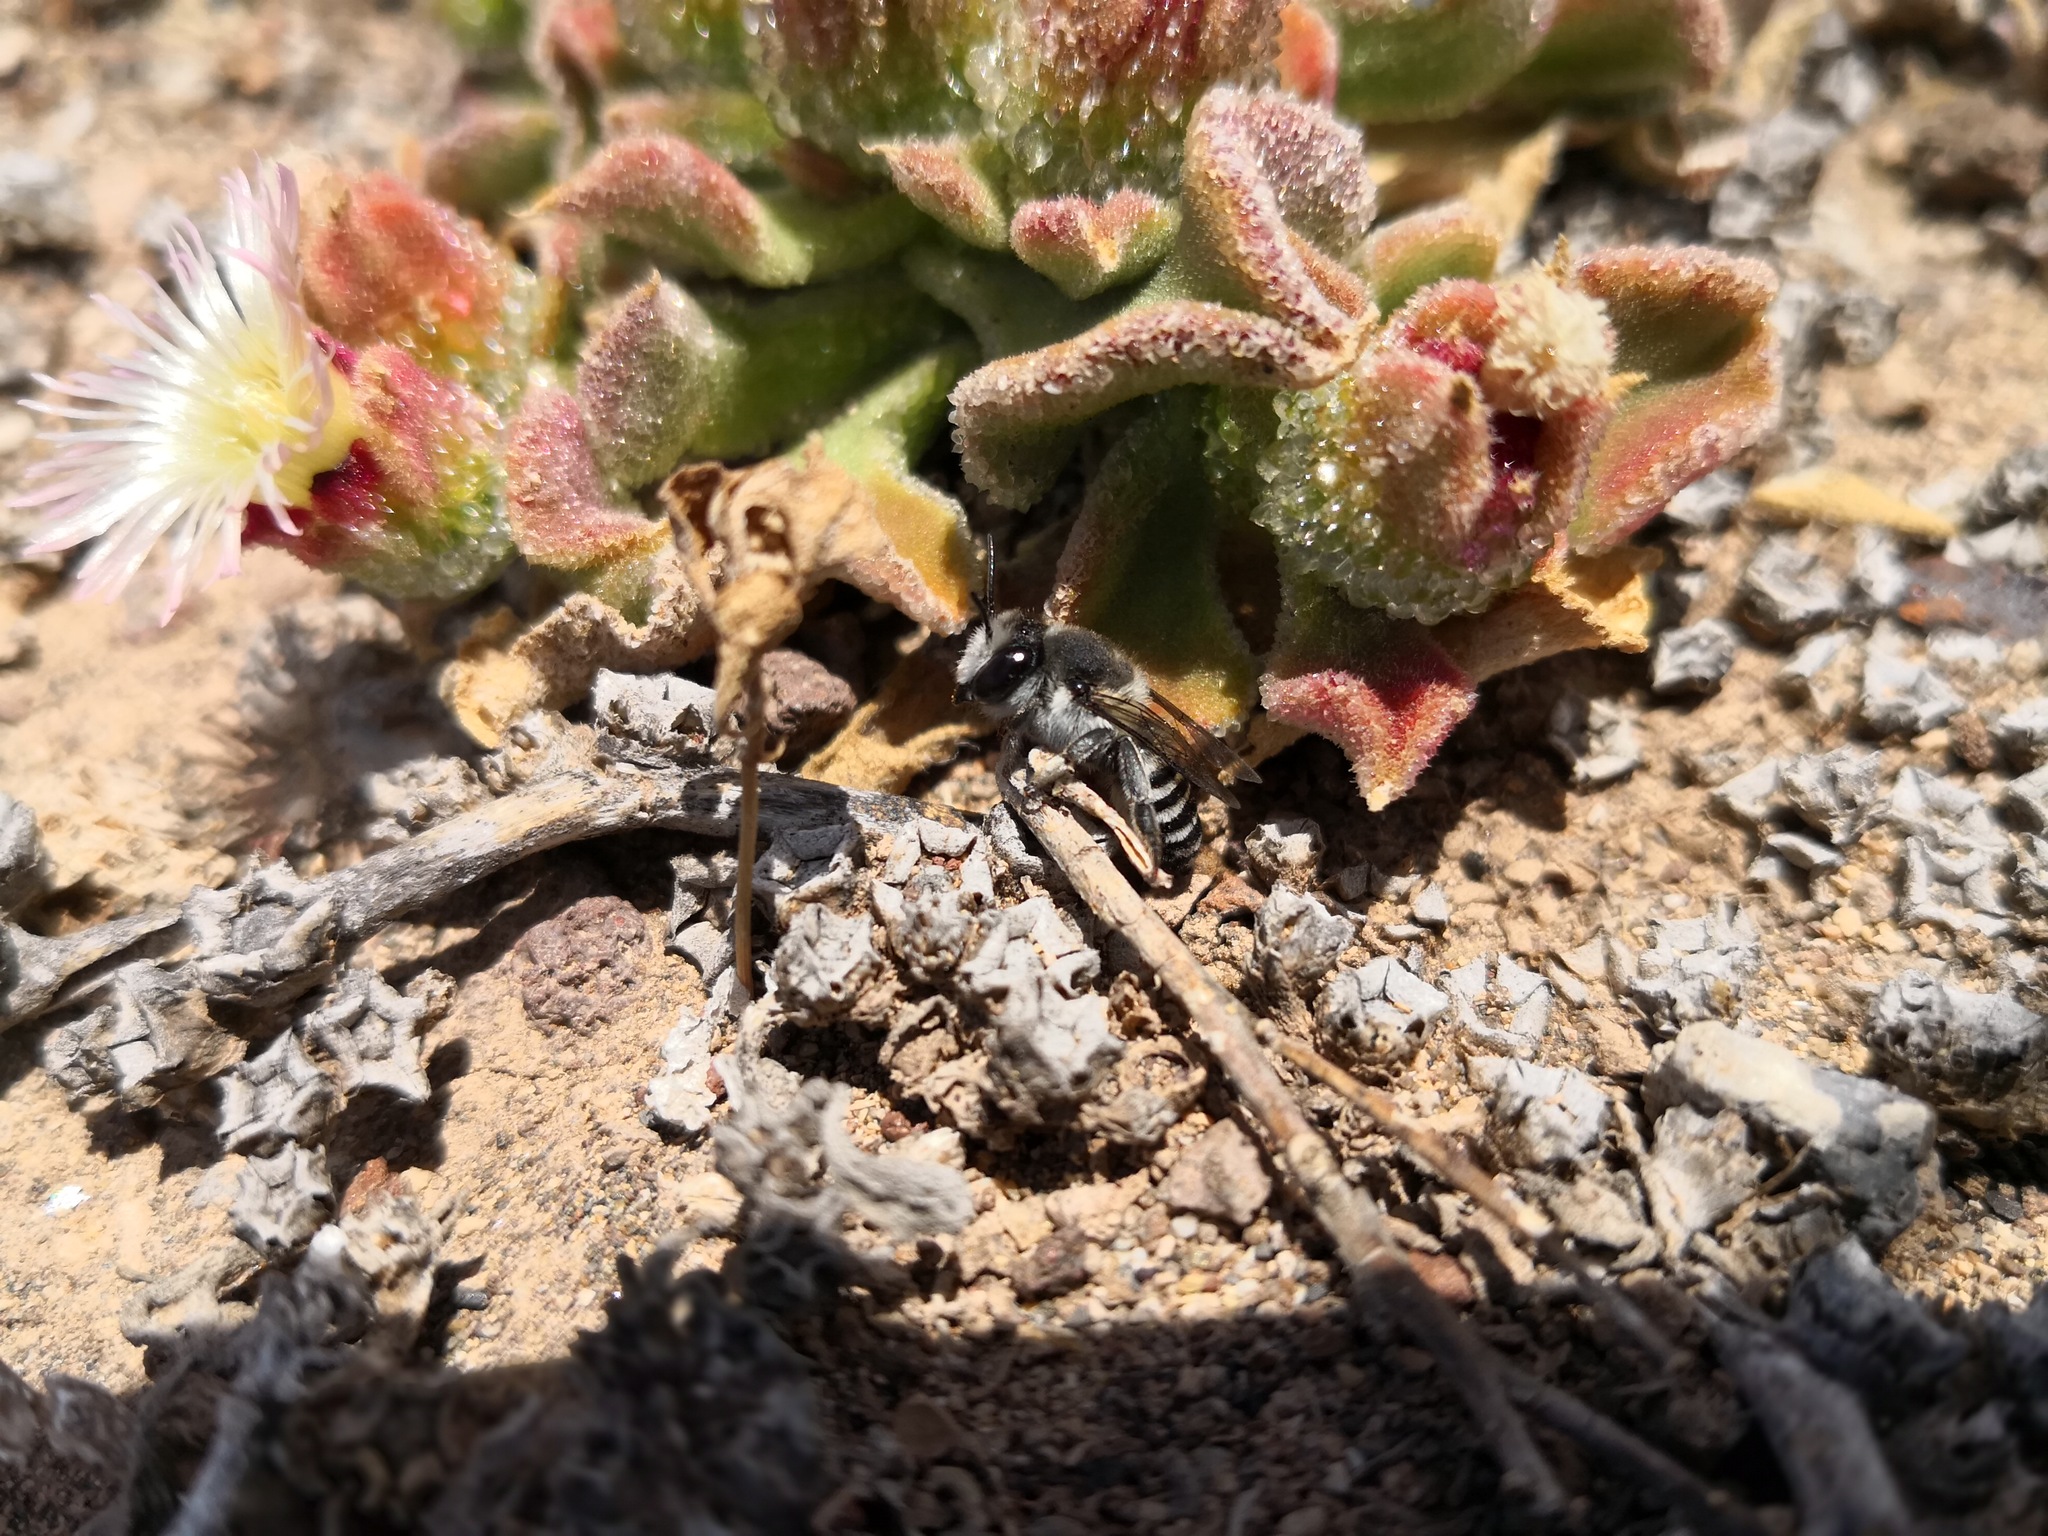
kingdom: Animalia
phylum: Arthropoda
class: Insecta
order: Hymenoptera
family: Megachilidae
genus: Megachile
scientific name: Megachile canariensis
